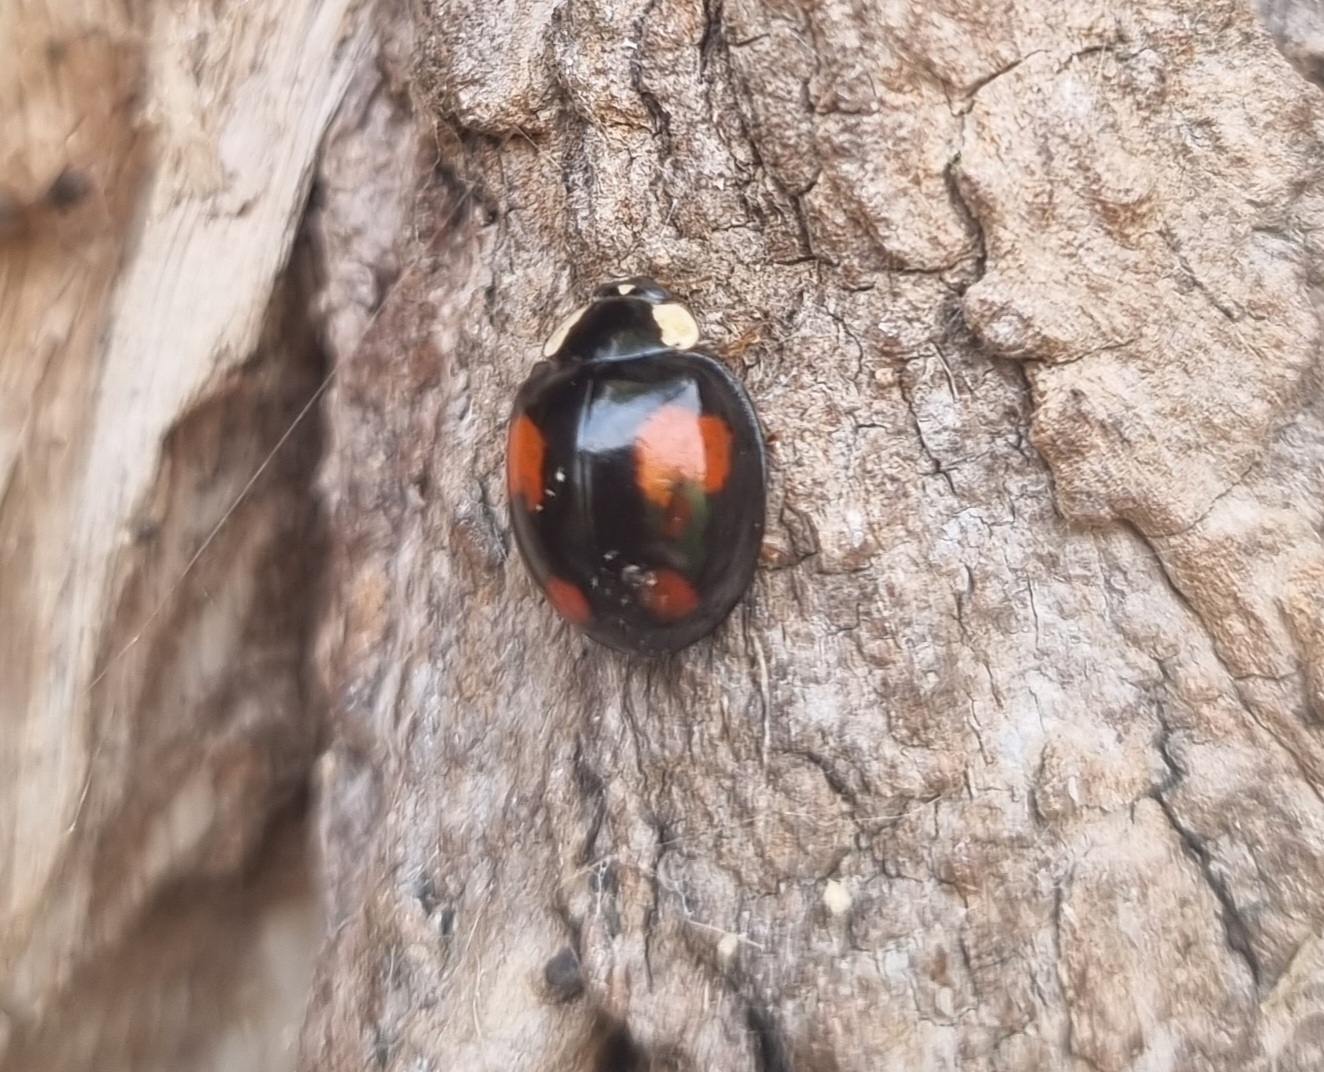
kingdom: Animalia
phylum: Arthropoda
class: Insecta
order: Coleoptera
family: Coccinellidae
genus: Harmonia
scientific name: Harmonia axyridis
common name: Harlequin ladybird
